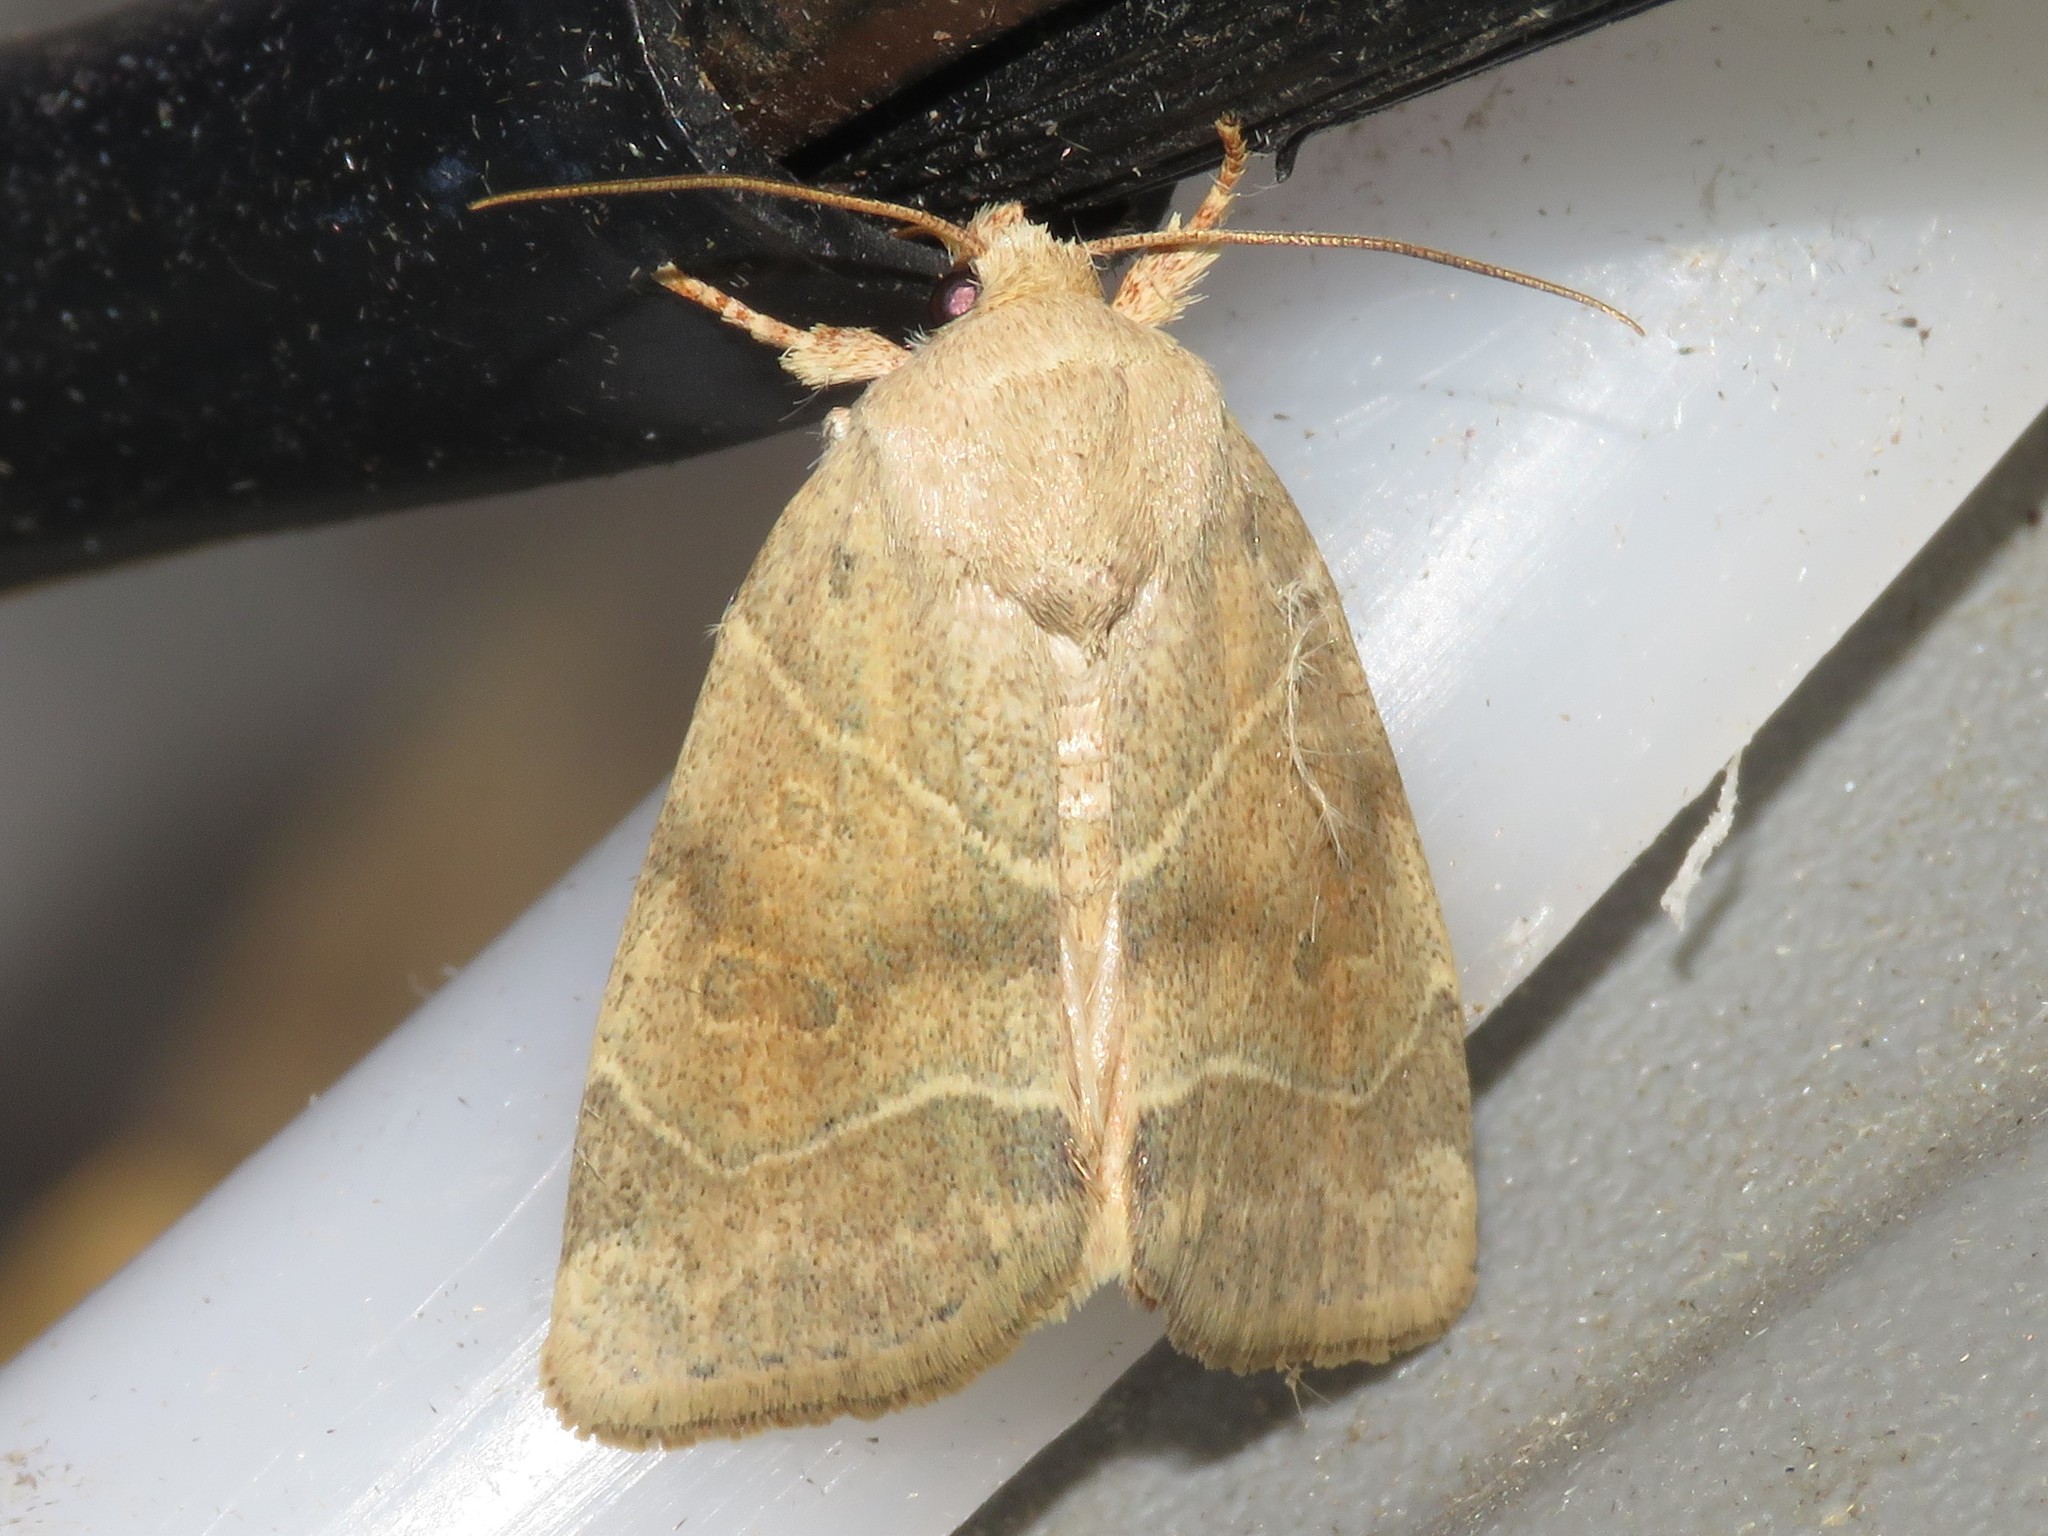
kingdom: Animalia
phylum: Arthropoda
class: Insecta
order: Lepidoptera
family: Noctuidae
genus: Cosmia
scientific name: Cosmia calami
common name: American dun-bar moth
